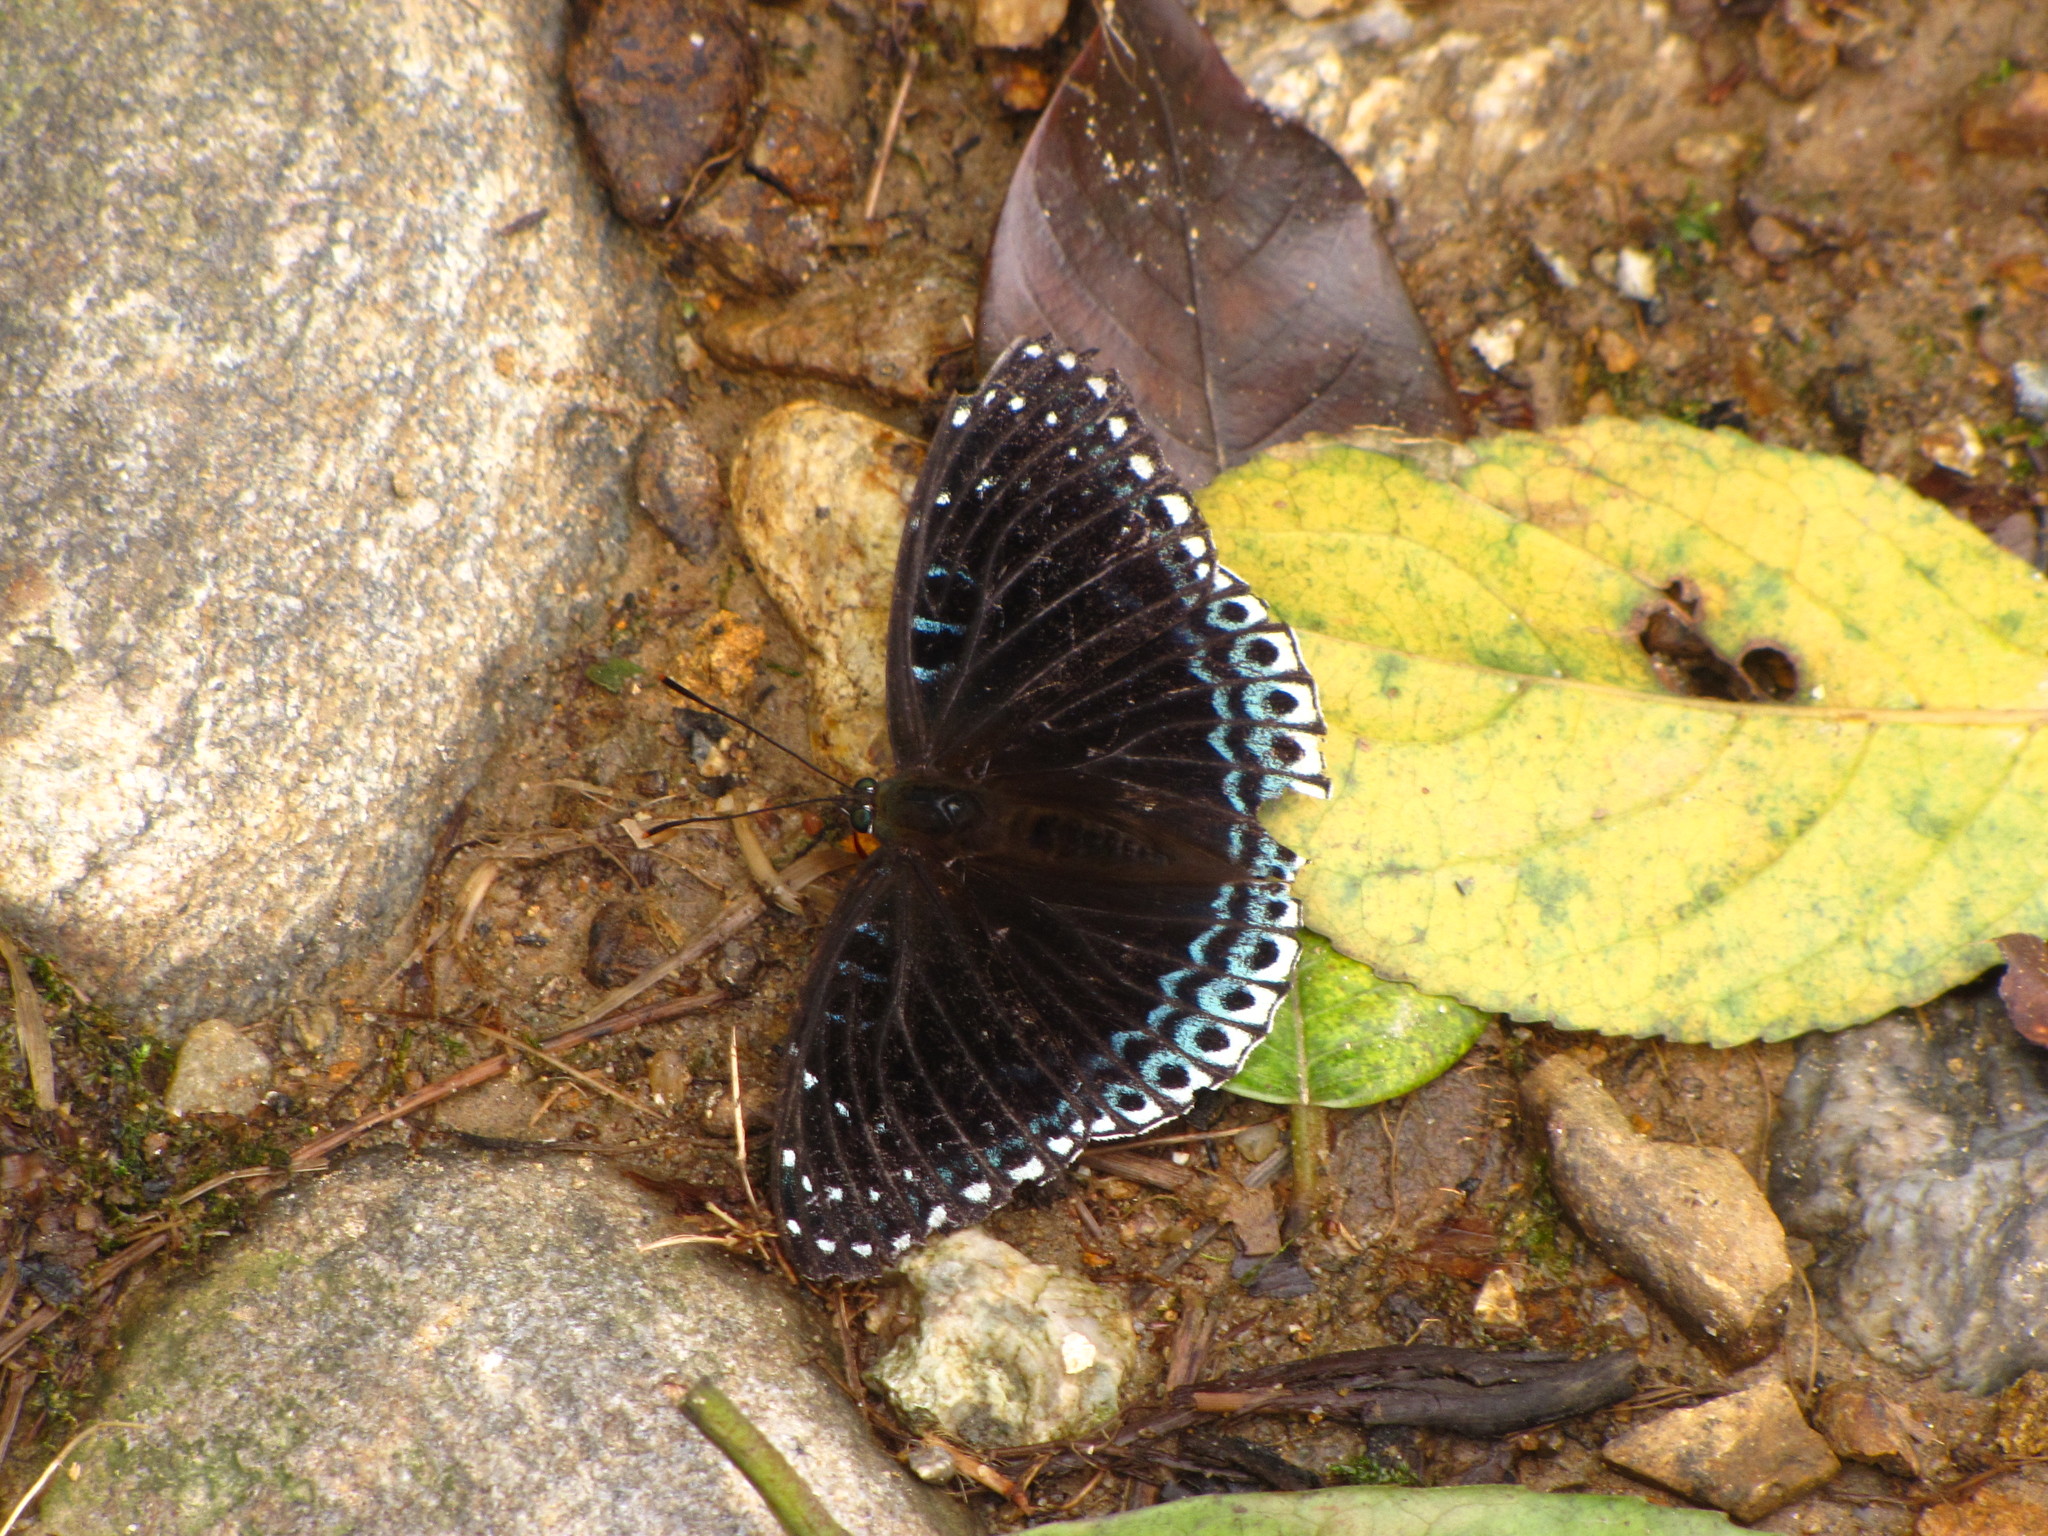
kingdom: Animalia
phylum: Arthropoda
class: Insecta
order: Lepidoptera
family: Nymphalidae
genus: Stibochiona
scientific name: Stibochiona nicea
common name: Popinjay
